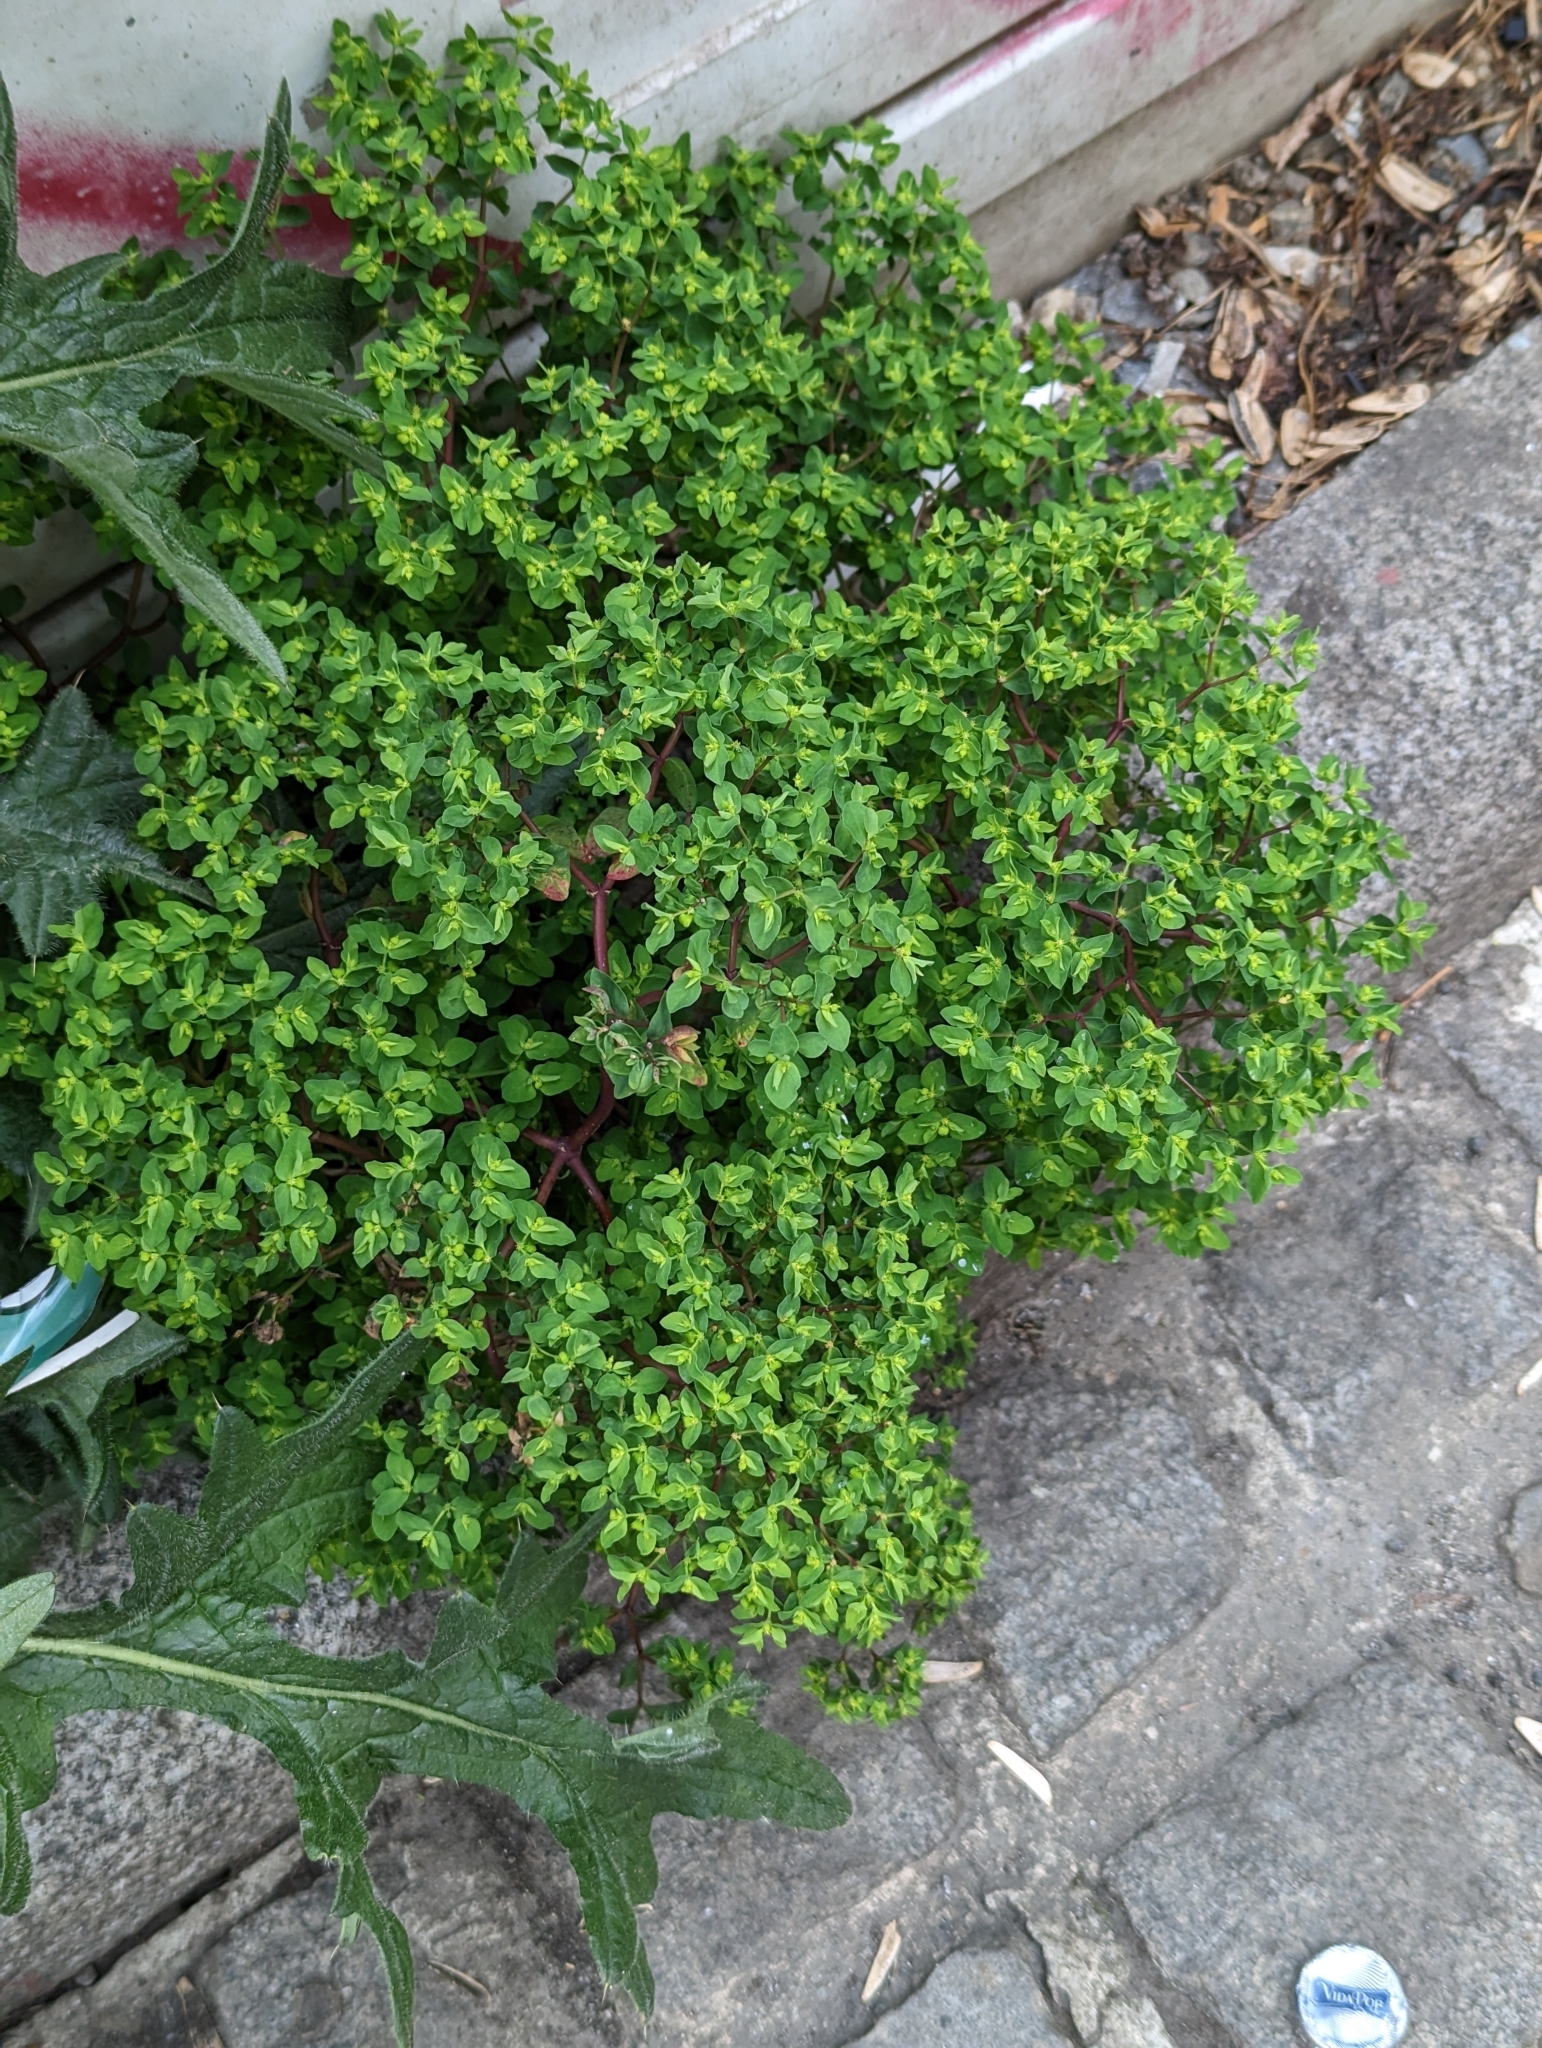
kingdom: Plantae
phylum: Tracheophyta
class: Magnoliopsida
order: Malpighiales
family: Euphorbiaceae
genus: Euphorbia
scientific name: Euphorbia peplus
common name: Petty spurge
